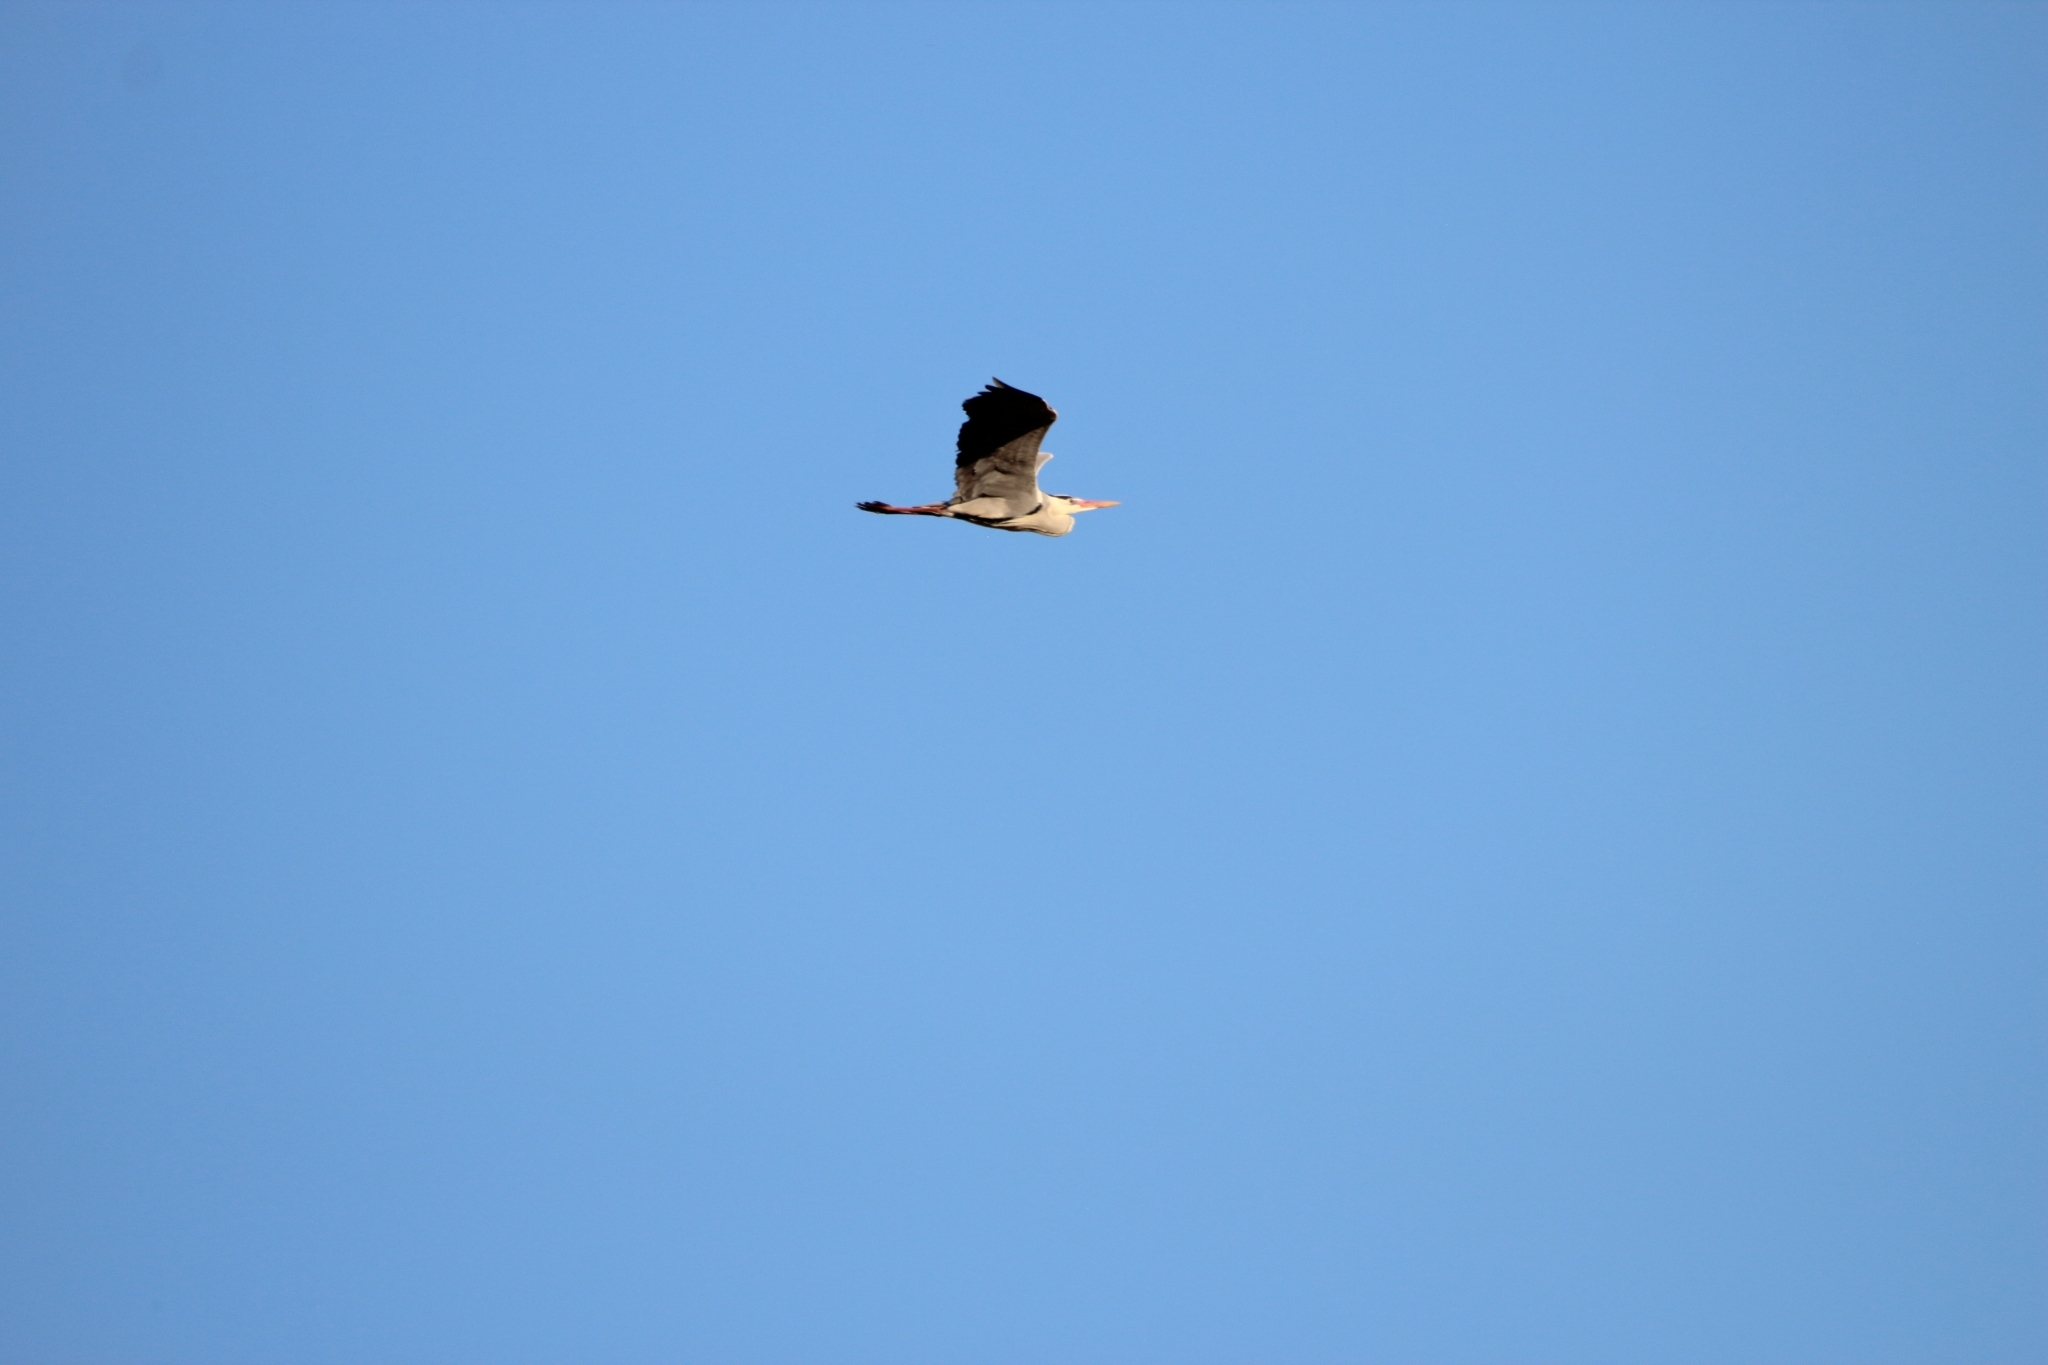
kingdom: Animalia
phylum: Chordata
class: Aves
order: Pelecaniformes
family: Ardeidae
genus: Ardea
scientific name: Ardea cinerea
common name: Grey heron
